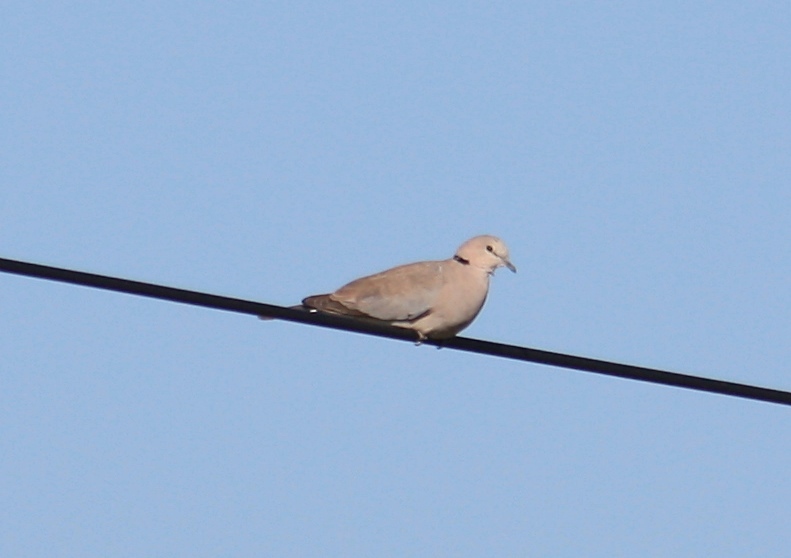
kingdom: Animalia
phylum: Chordata
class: Aves
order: Columbiformes
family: Columbidae
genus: Streptopelia
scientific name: Streptopelia capicola
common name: Ring-necked dove
